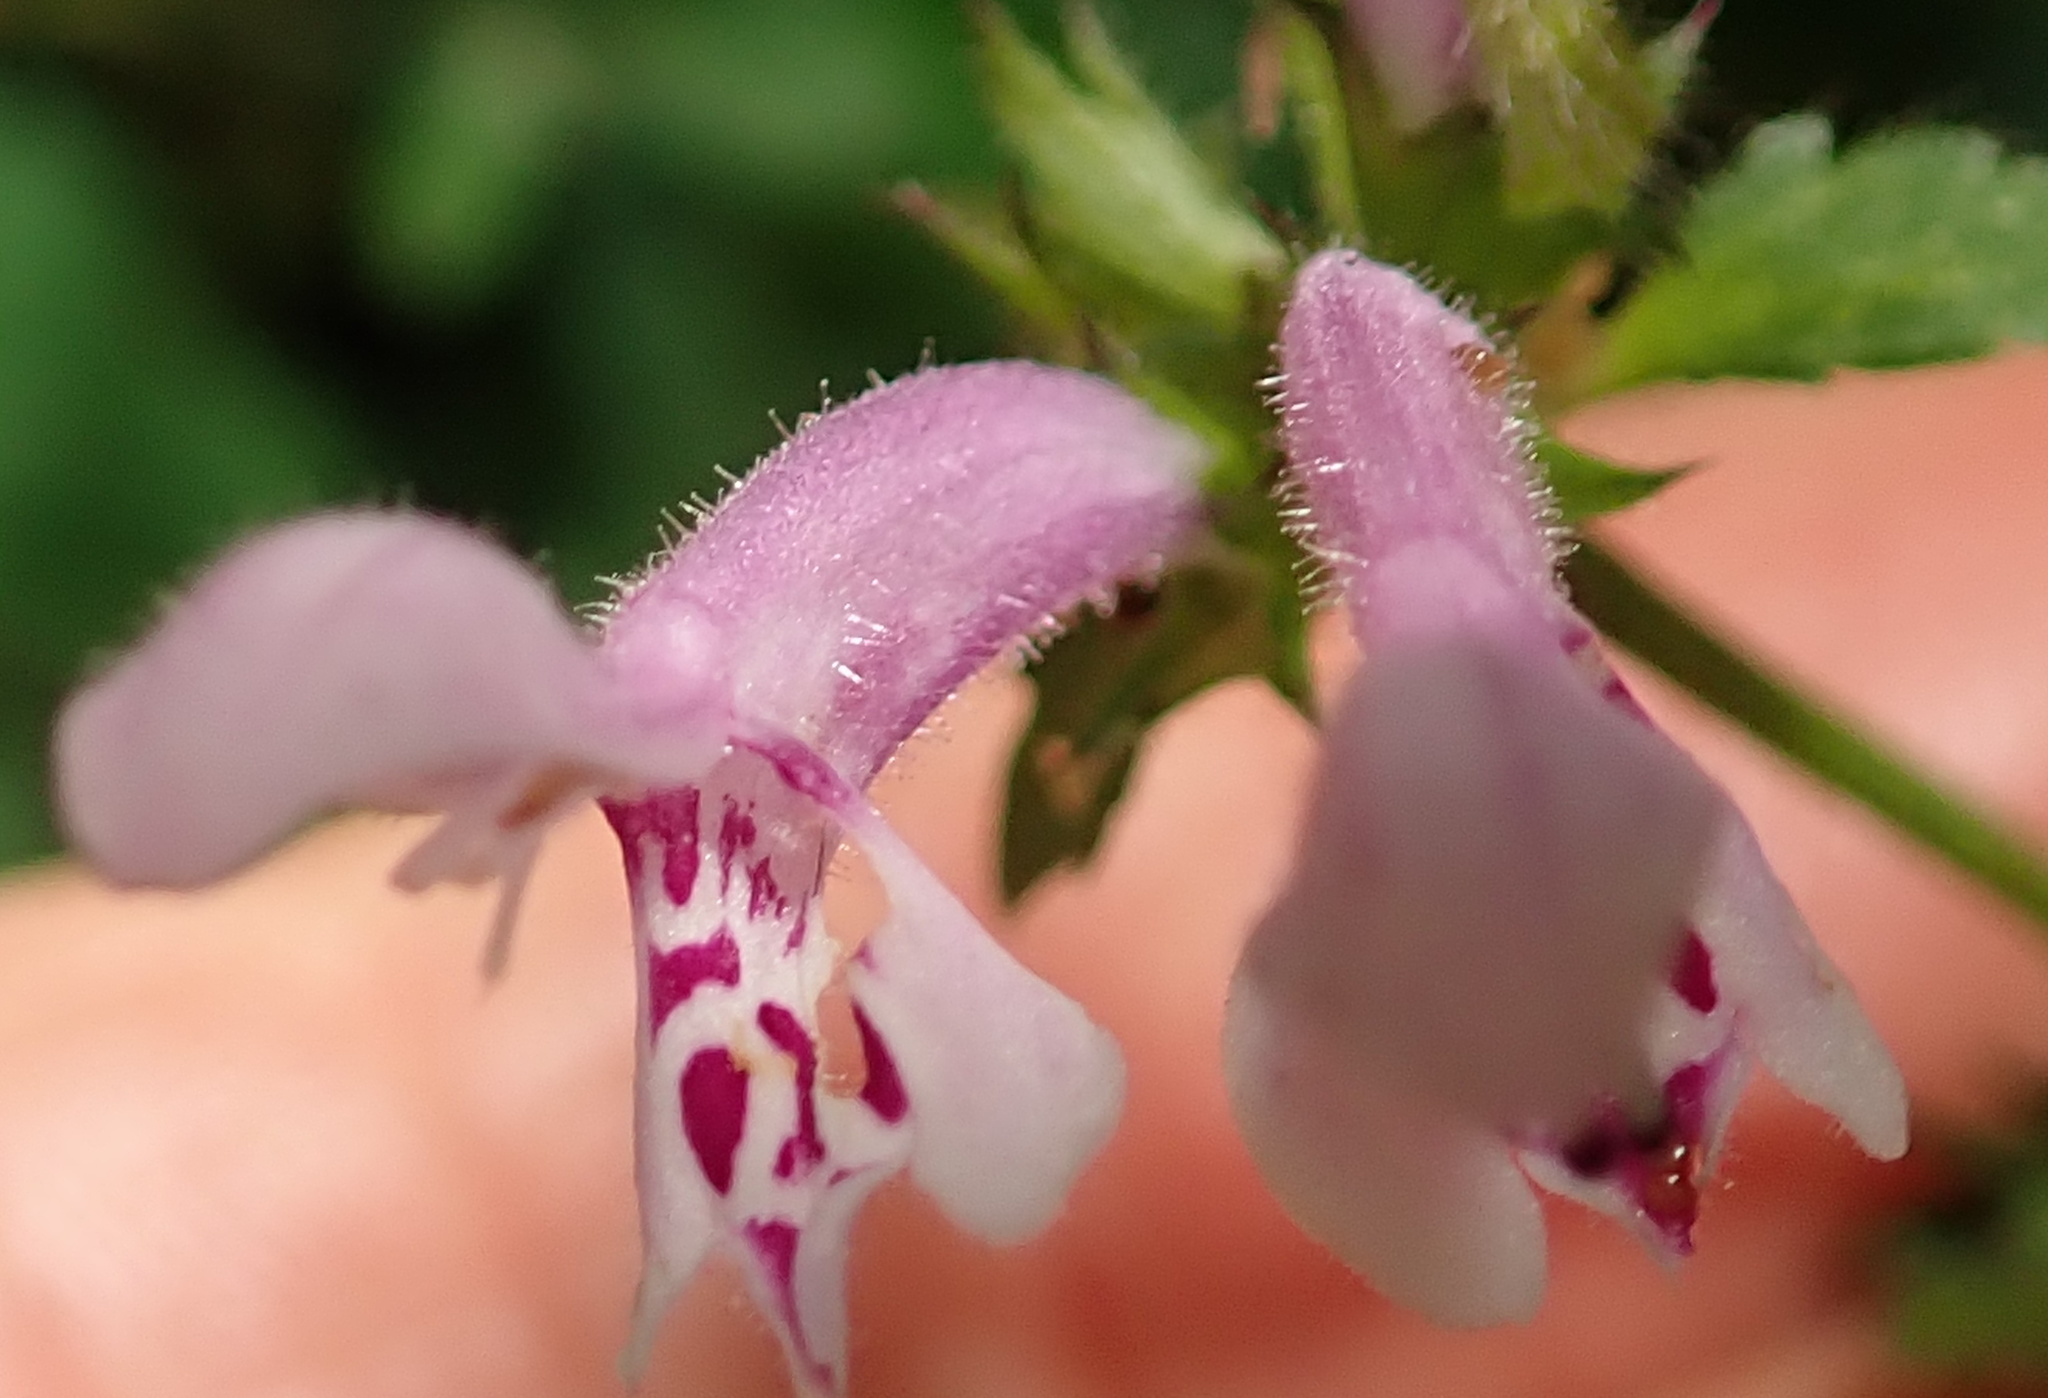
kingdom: Plantae
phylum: Tracheophyta
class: Magnoliopsida
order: Lamiales
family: Lamiaceae
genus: Stachys
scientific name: Stachys tubulosa
